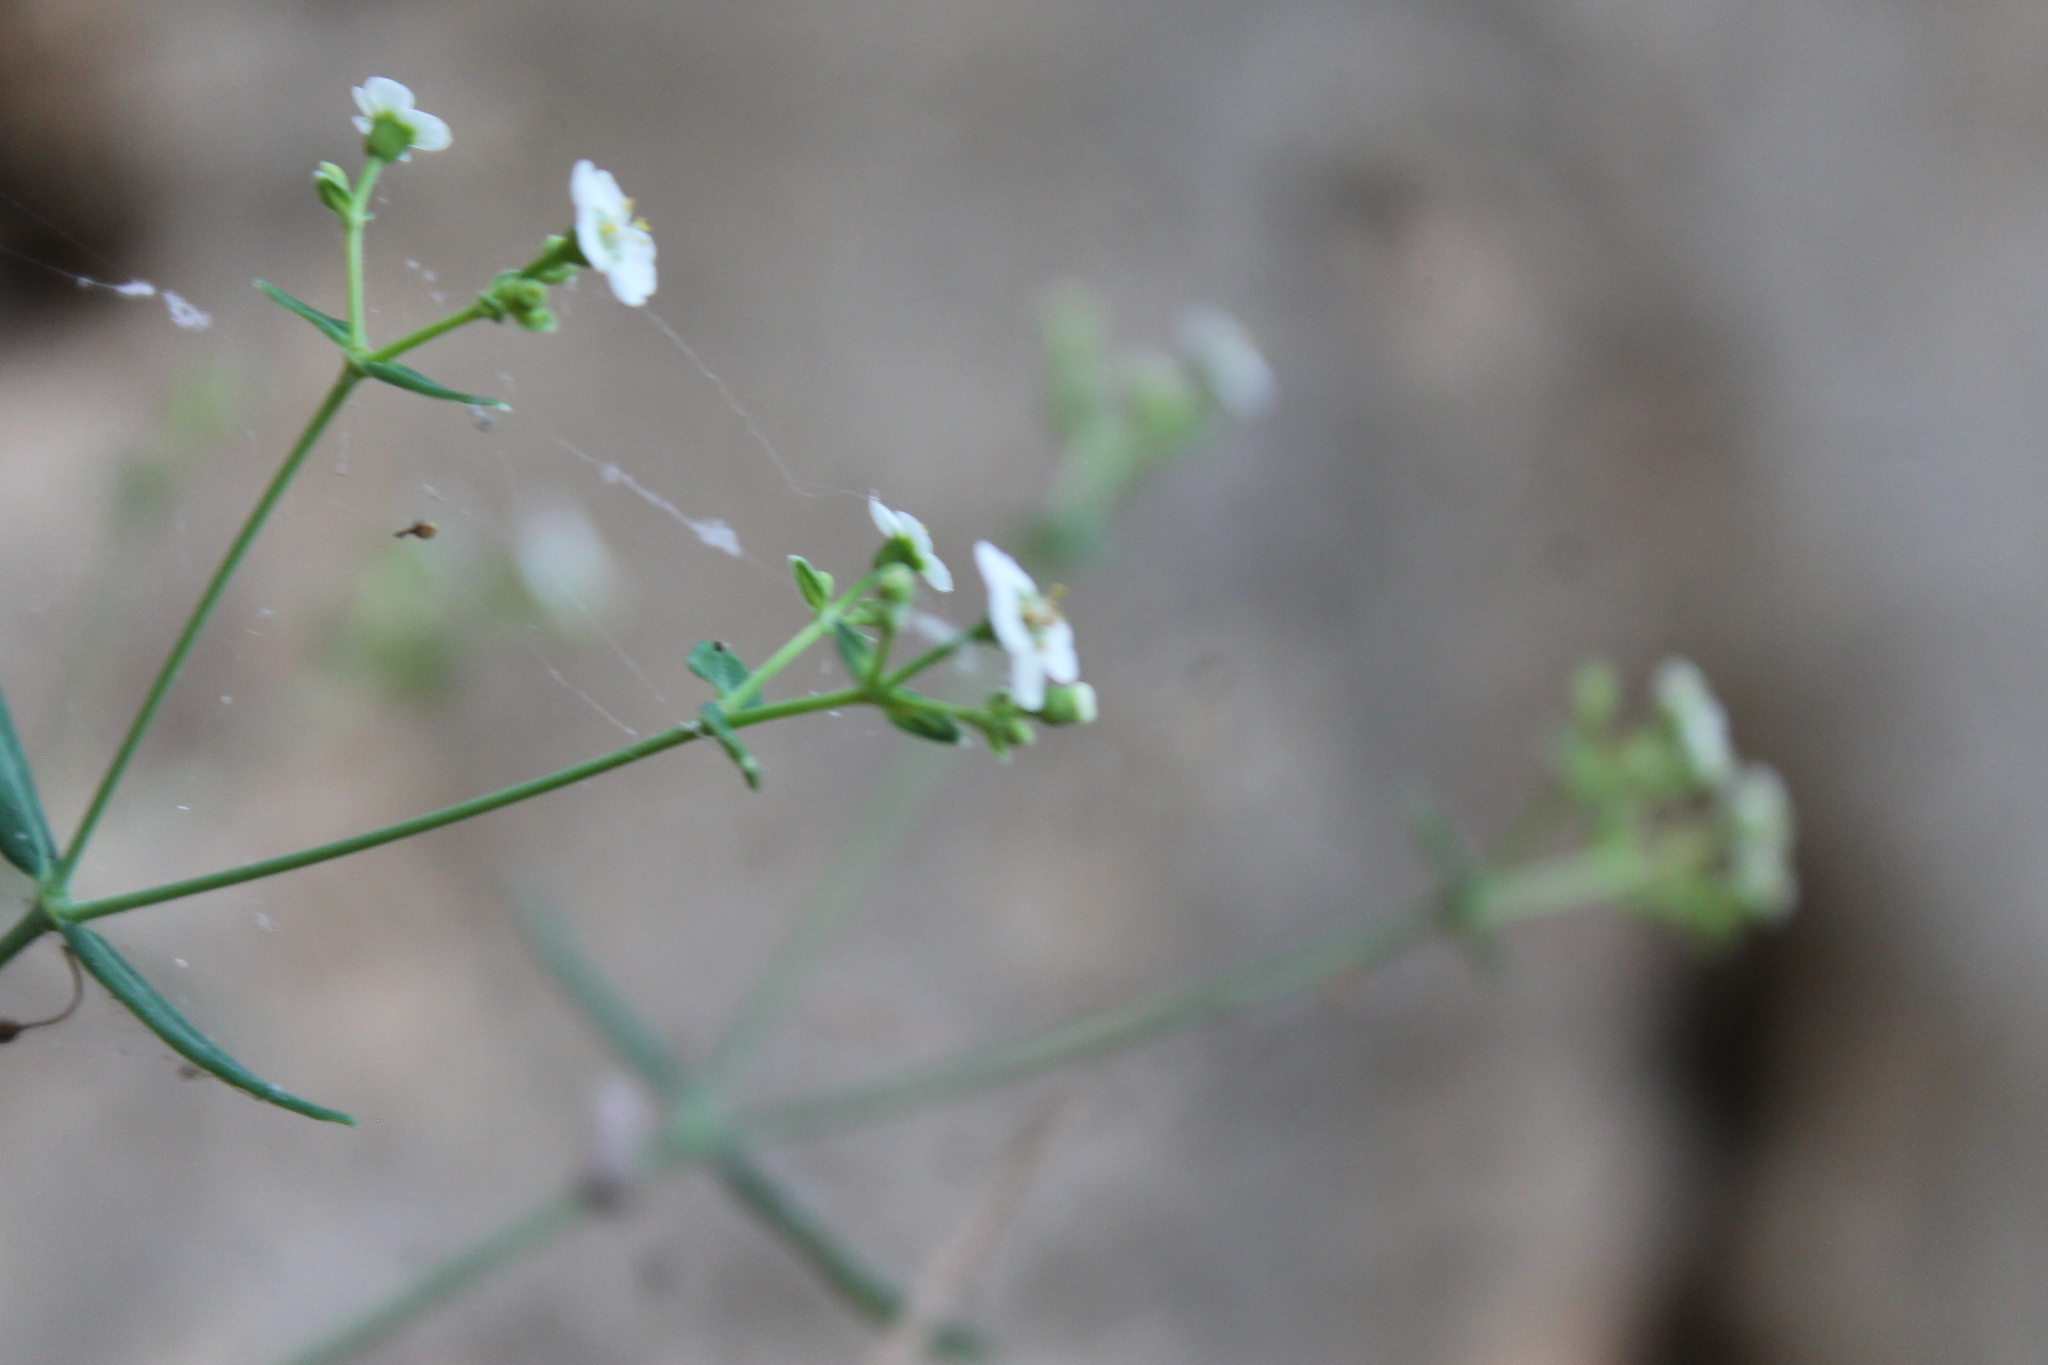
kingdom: Plantae
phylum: Tracheophyta
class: Magnoliopsida
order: Malpighiales
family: Euphorbiaceae
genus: Euphorbia
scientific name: Euphorbia corollata
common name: Flowering spurge
